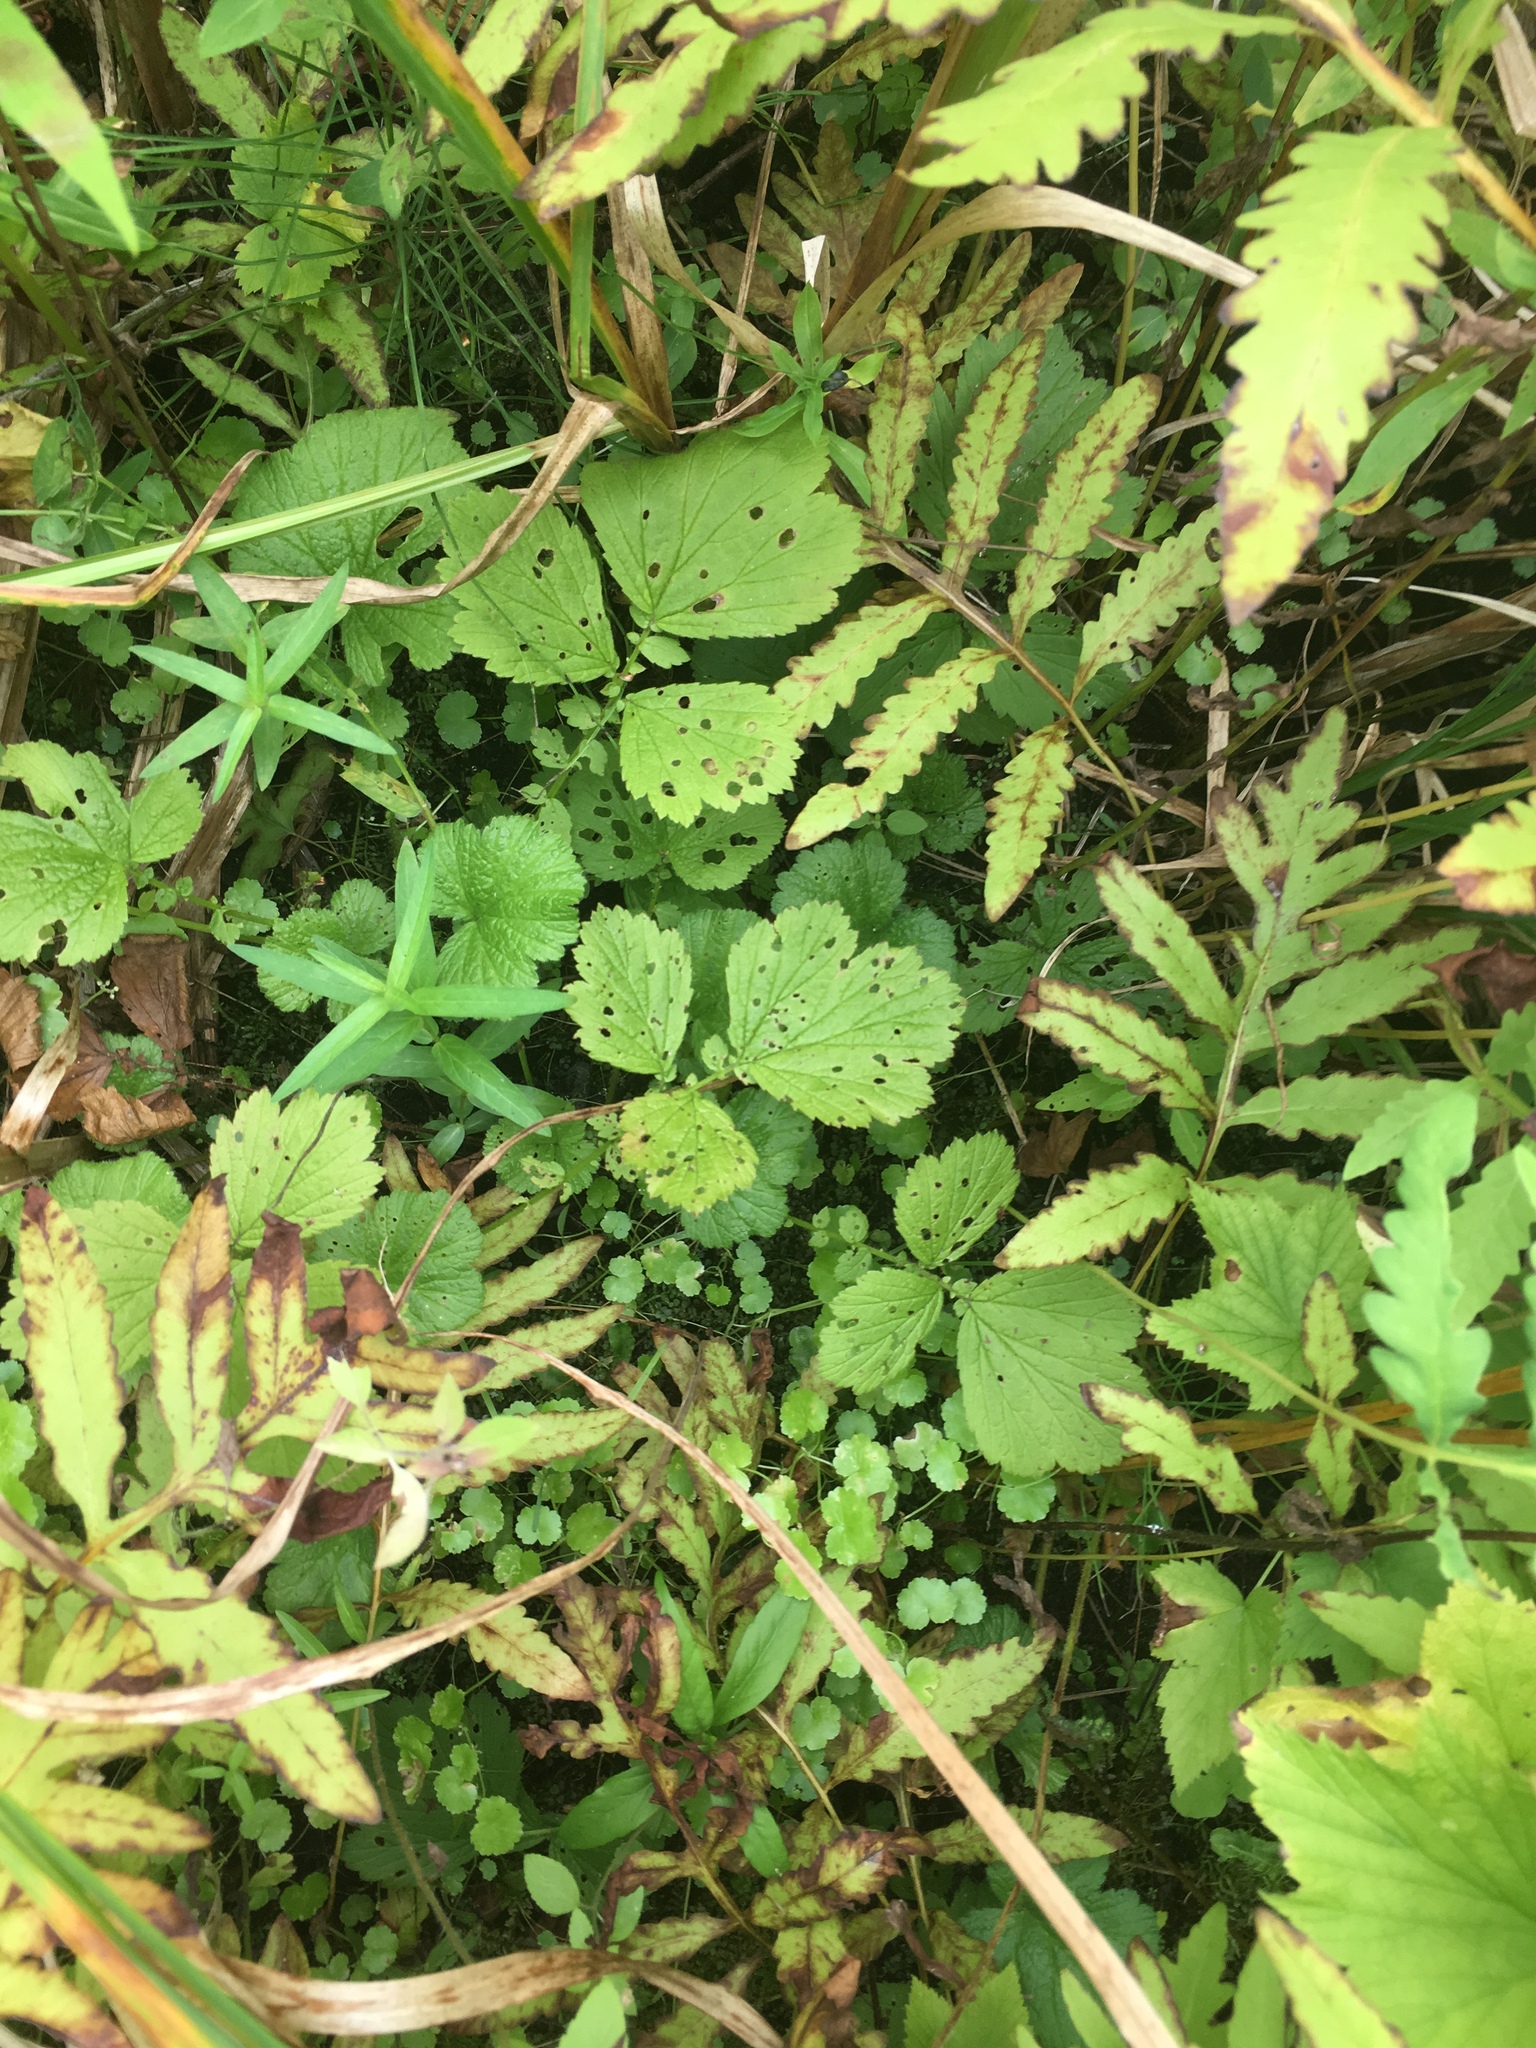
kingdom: Plantae
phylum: Tracheophyta
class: Polypodiopsida
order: Polypodiales
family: Onocleaceae
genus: Onoclea
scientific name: Onoclea sensibilis
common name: Sensitive fern
